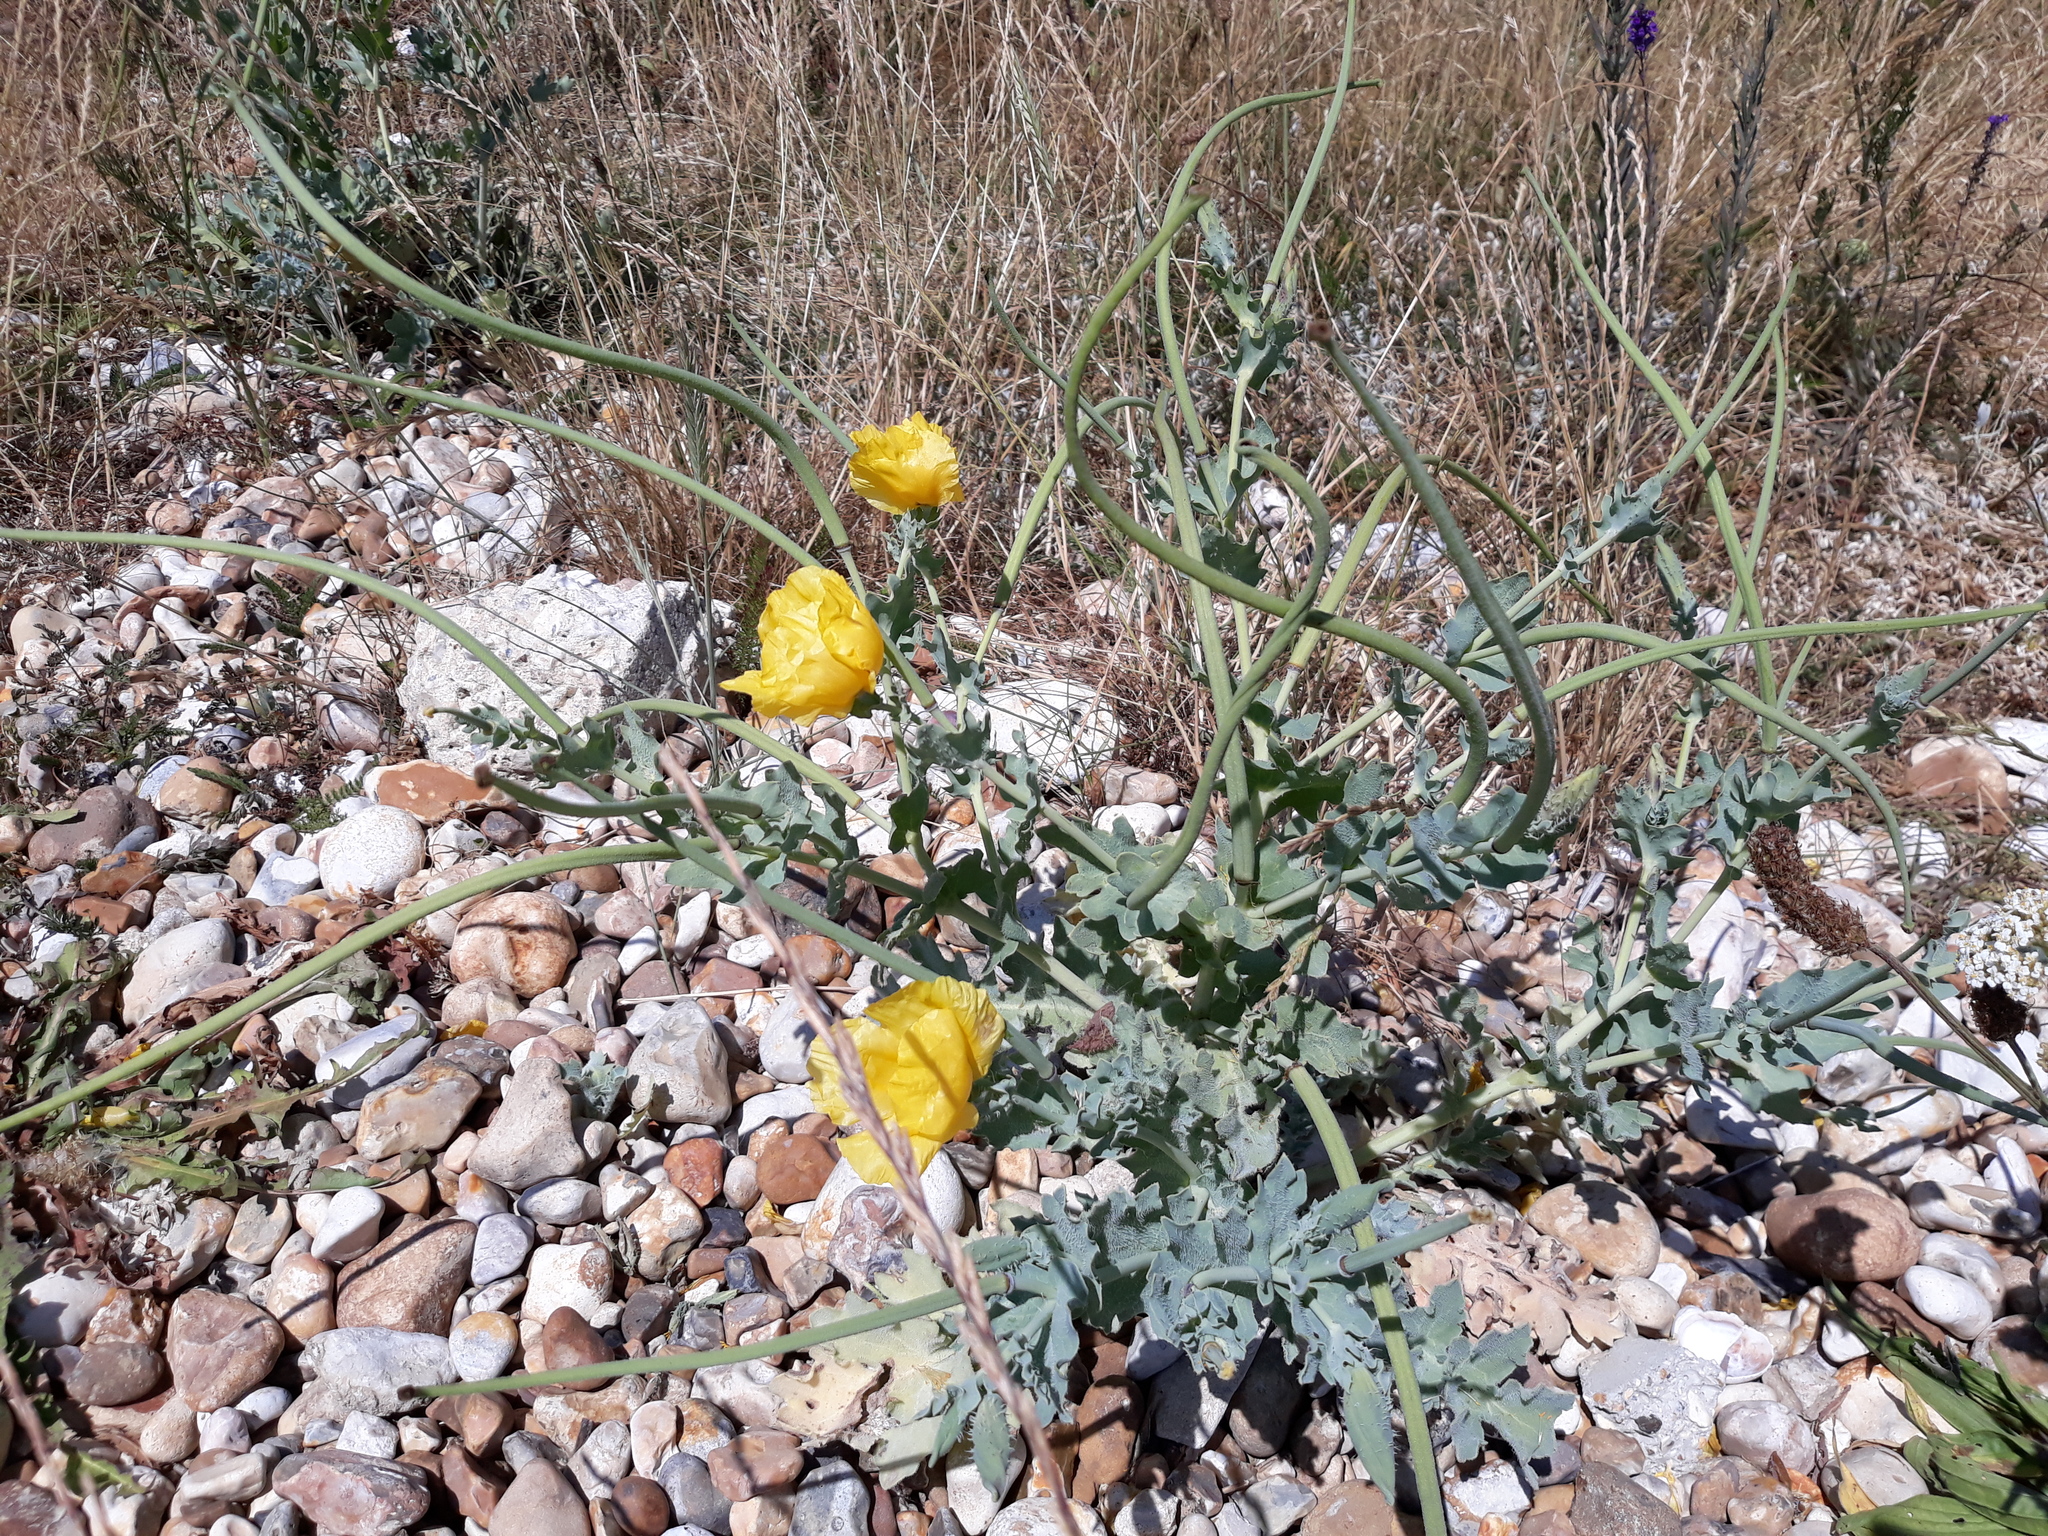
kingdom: Plantae
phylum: Tracheophyta
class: Magnoliopsida
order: Ranunculales
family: Papaveraceae
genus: Glaucium
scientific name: Glaucium flavum
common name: Yellow horned-poppy
